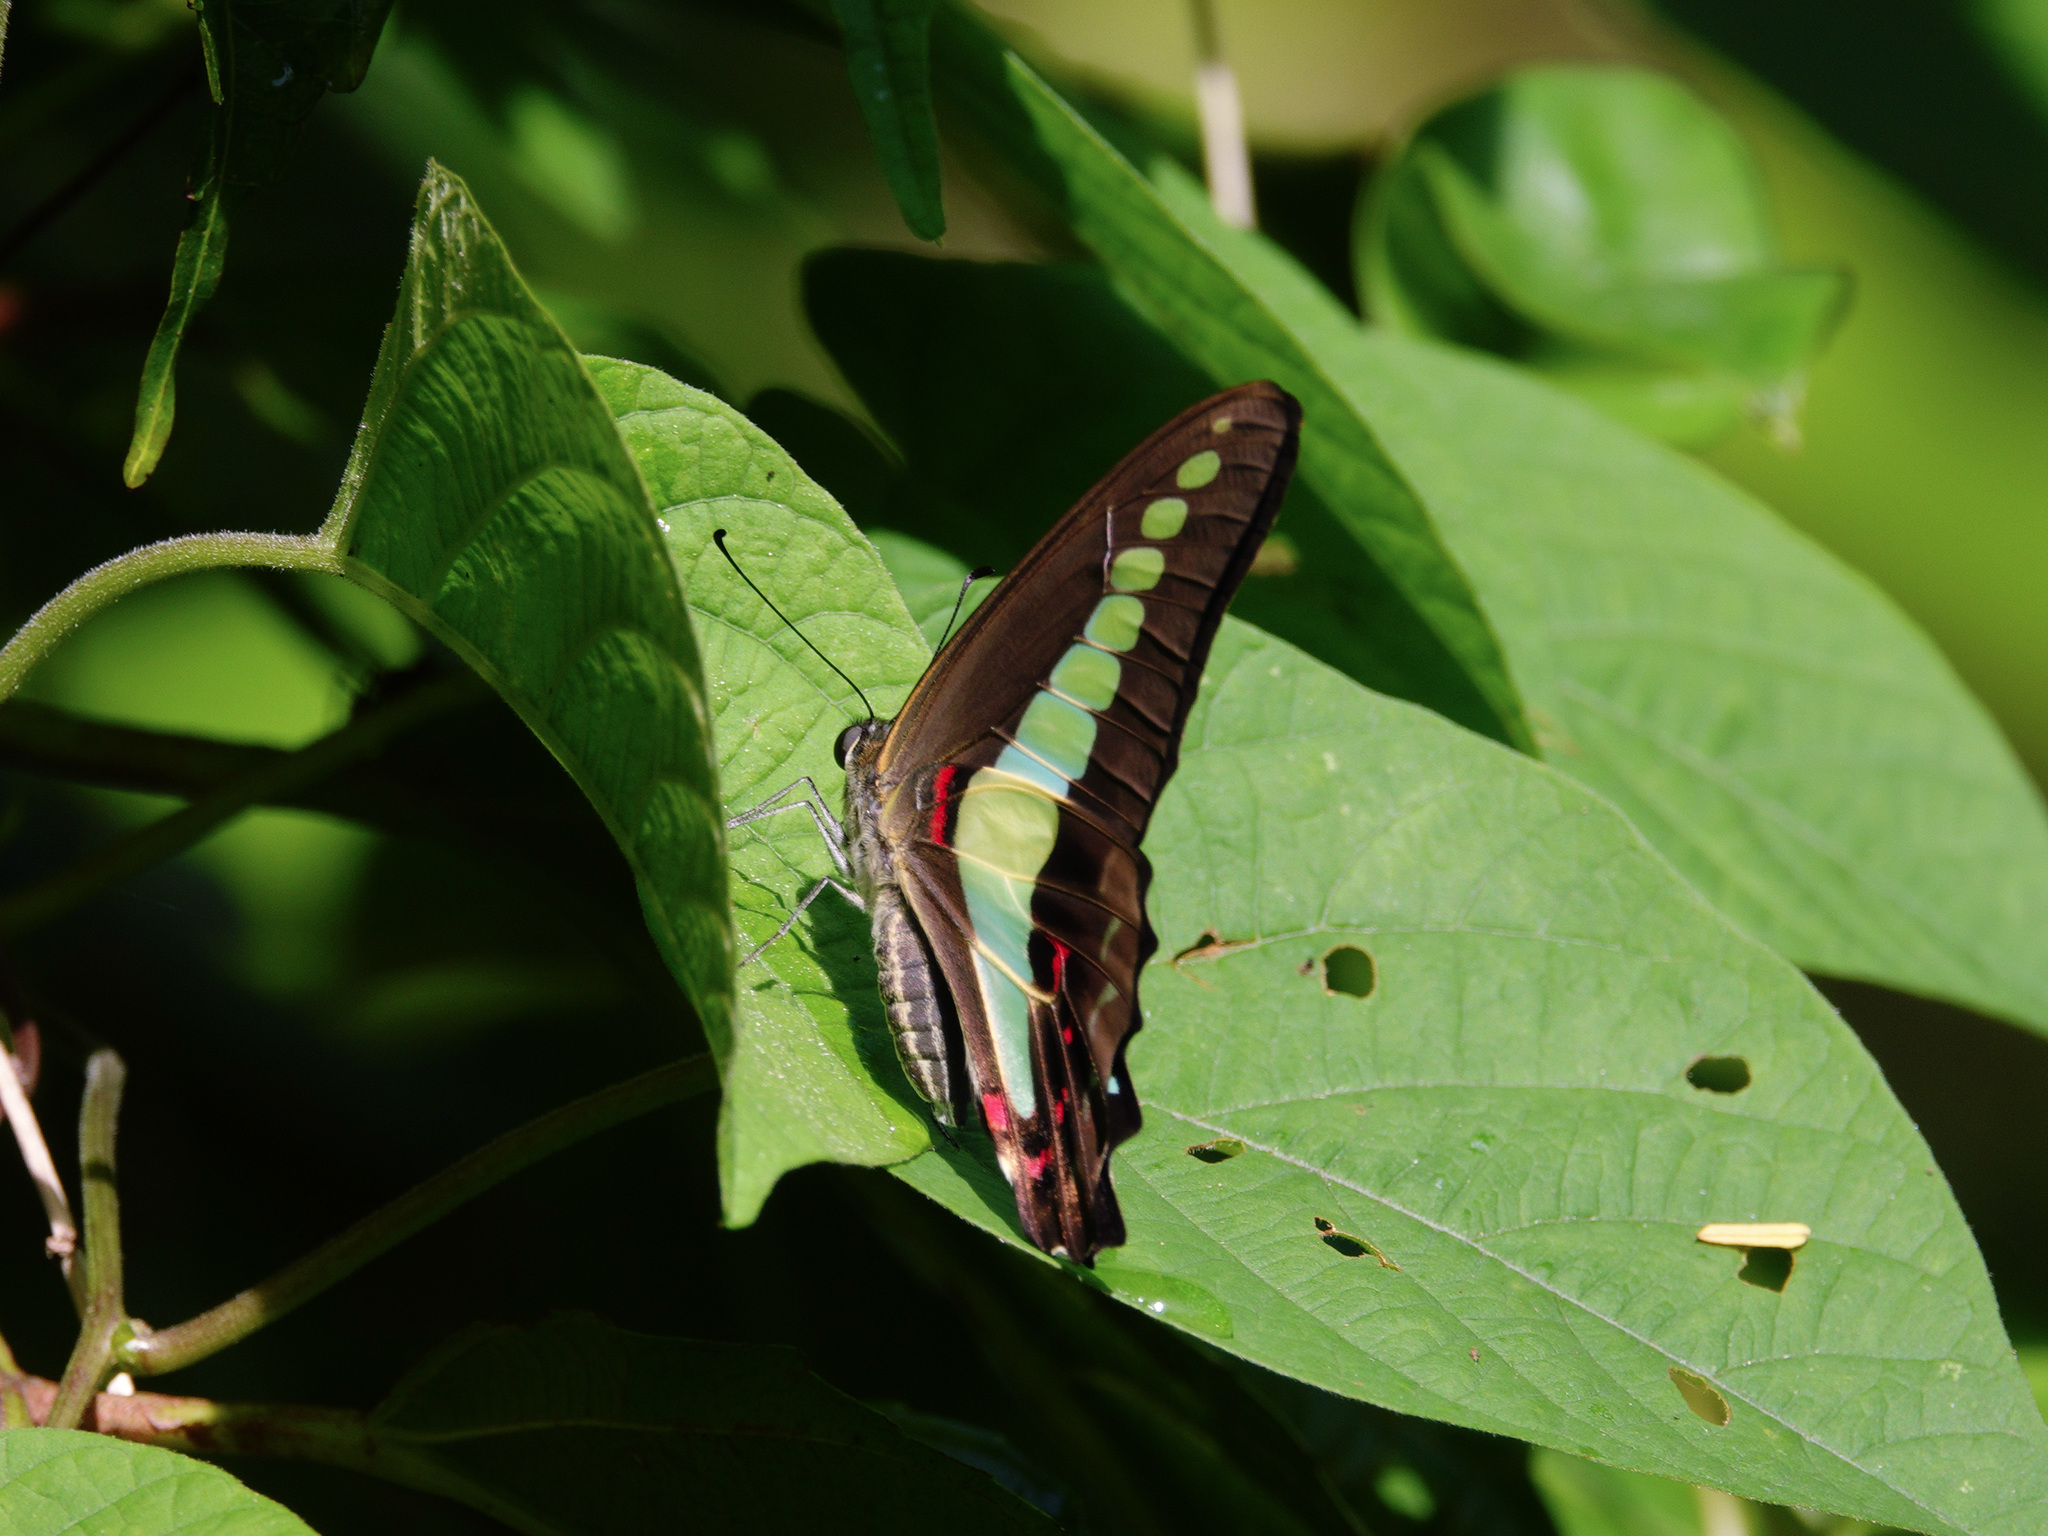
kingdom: Fungi
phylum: Ascomycota
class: Sordariomycetes
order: Microascales
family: Microascaceae
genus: Graphium
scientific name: Graphium sarpedon
